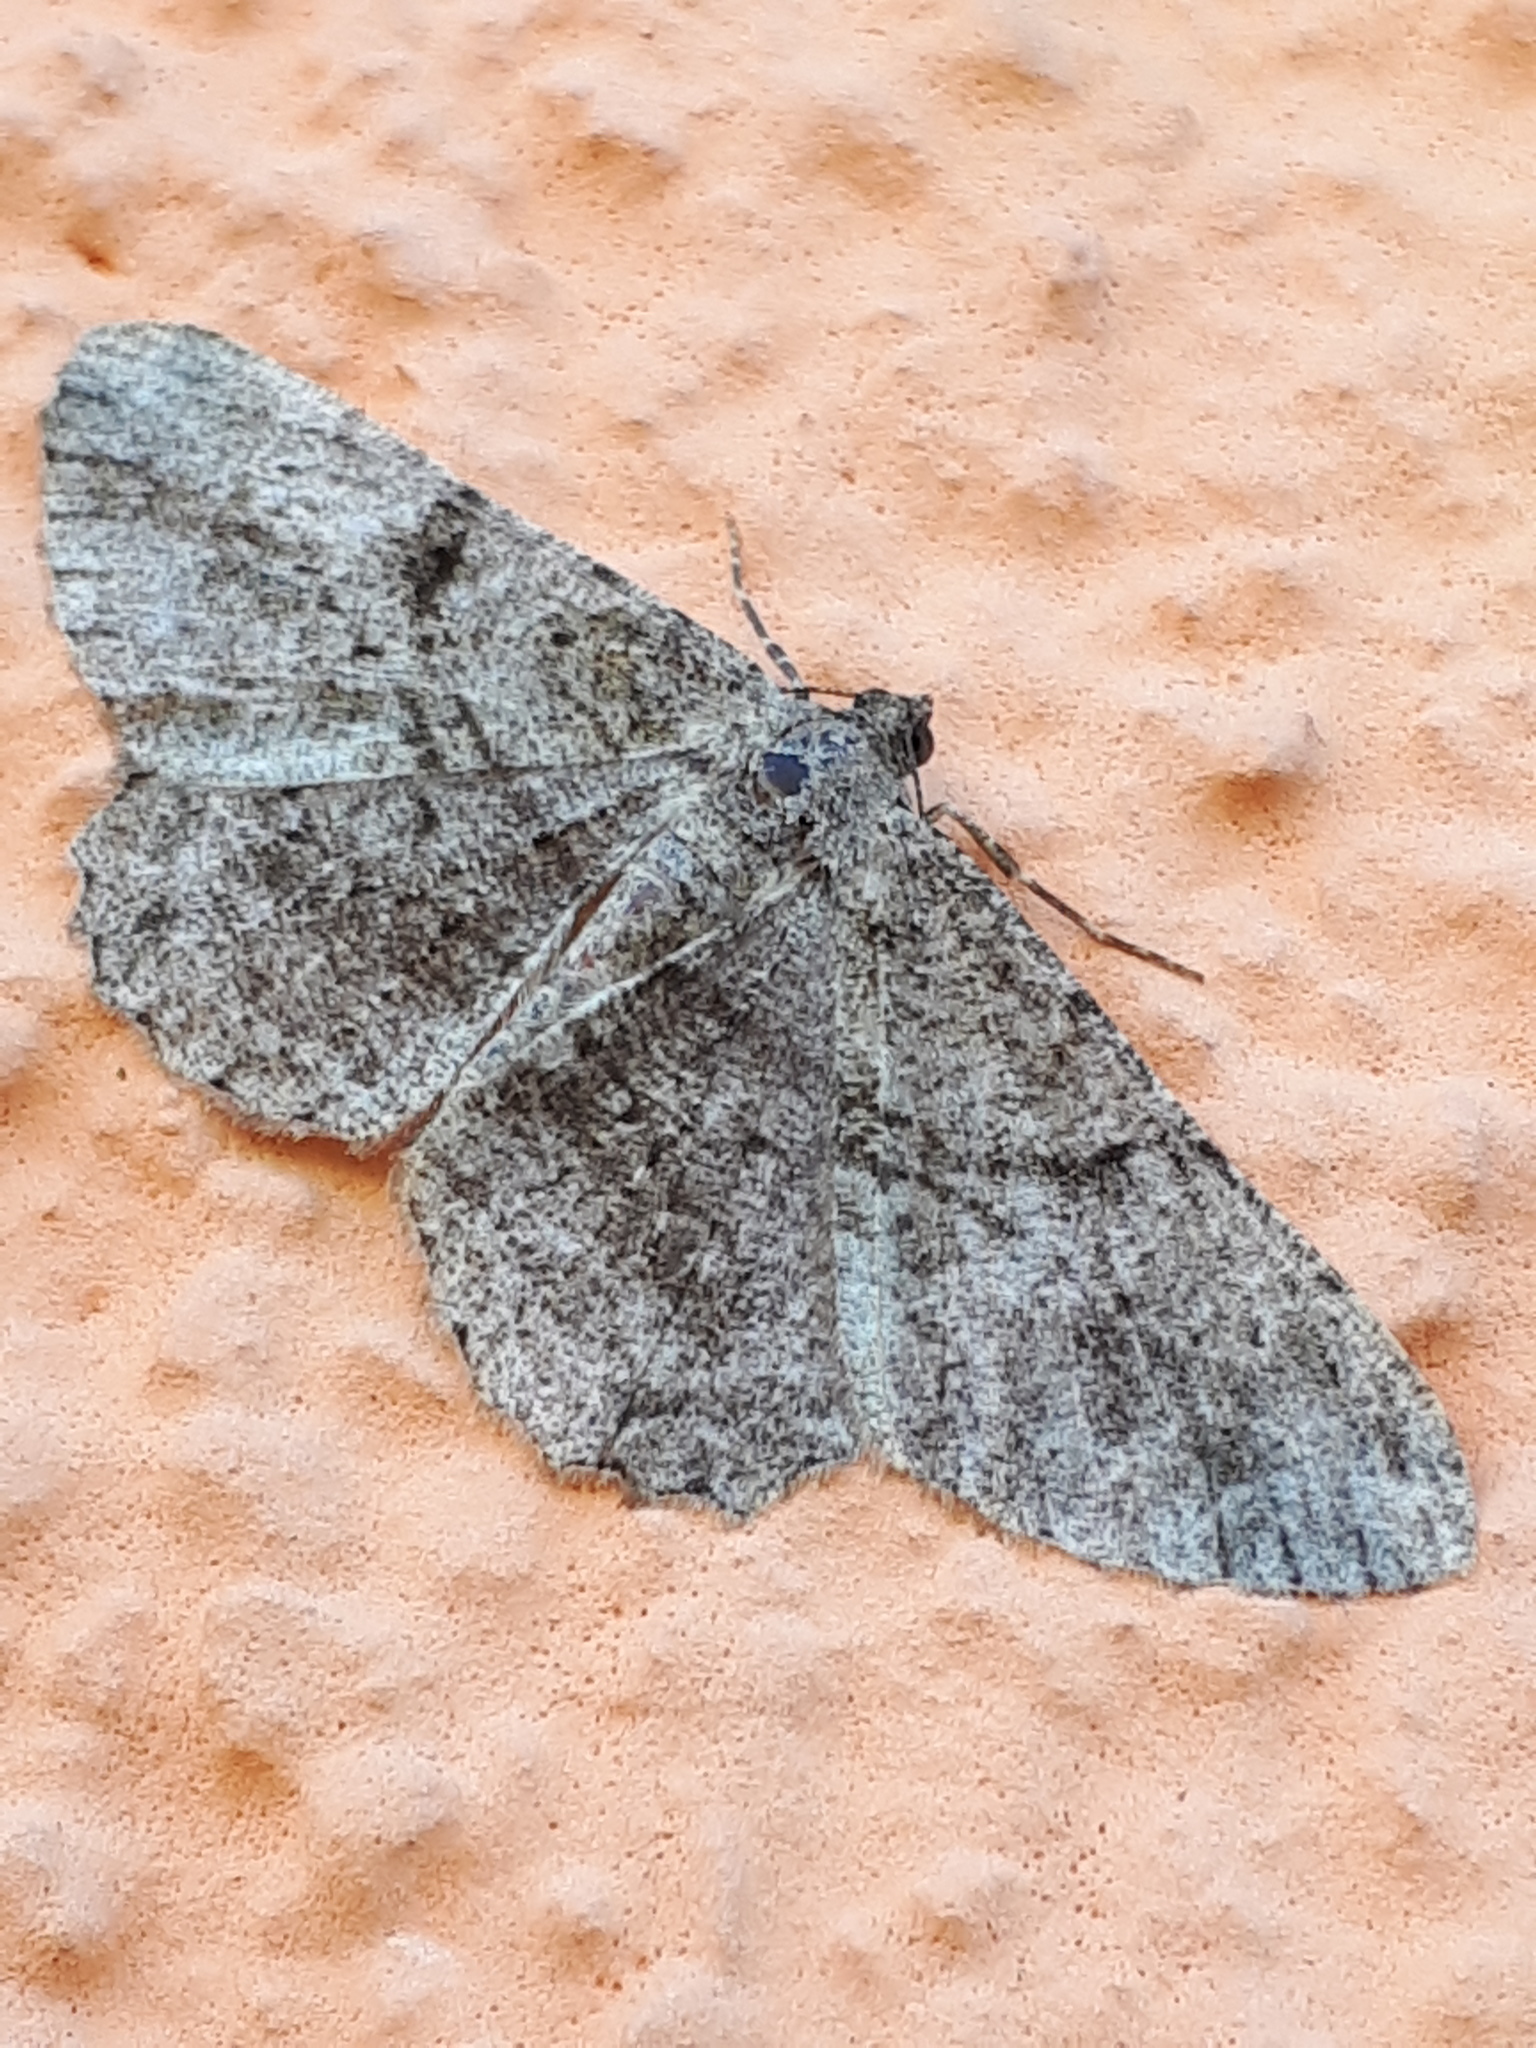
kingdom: Animalia
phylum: Arthropoda
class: Insecta
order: Lepidoptera
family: Geometridae
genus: Peribatodes
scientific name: Peribatodes rhomboidaria
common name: Willow beauty
